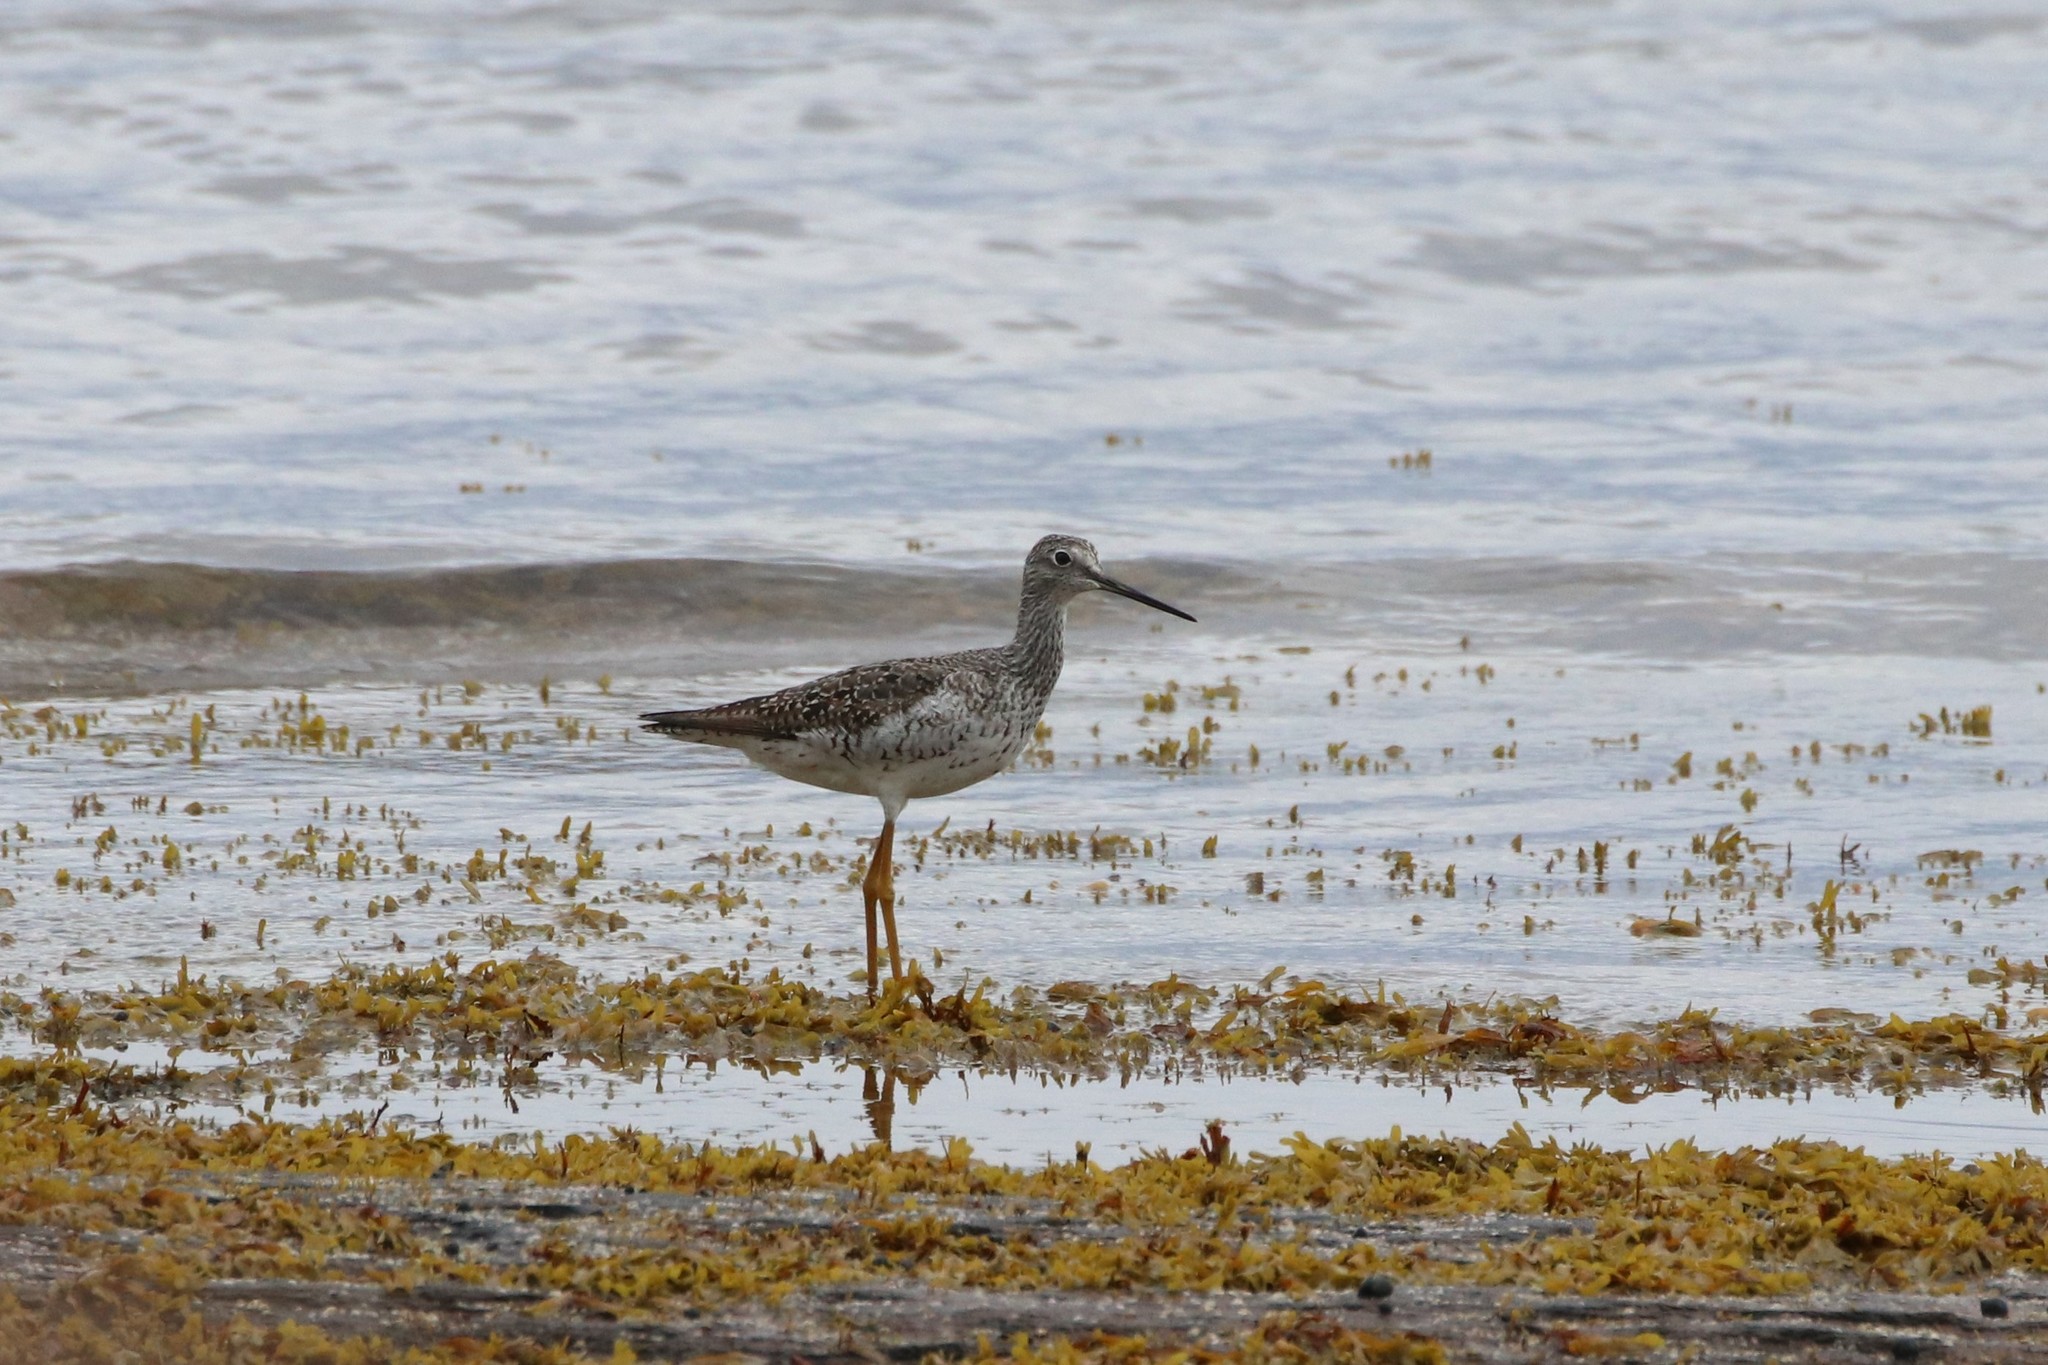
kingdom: Animalia
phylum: Chordata
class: Aves
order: Charadriiformes
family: Scolopacidae
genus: Tringa
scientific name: Tringa melanoleuca
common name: Greater yellowlegs
